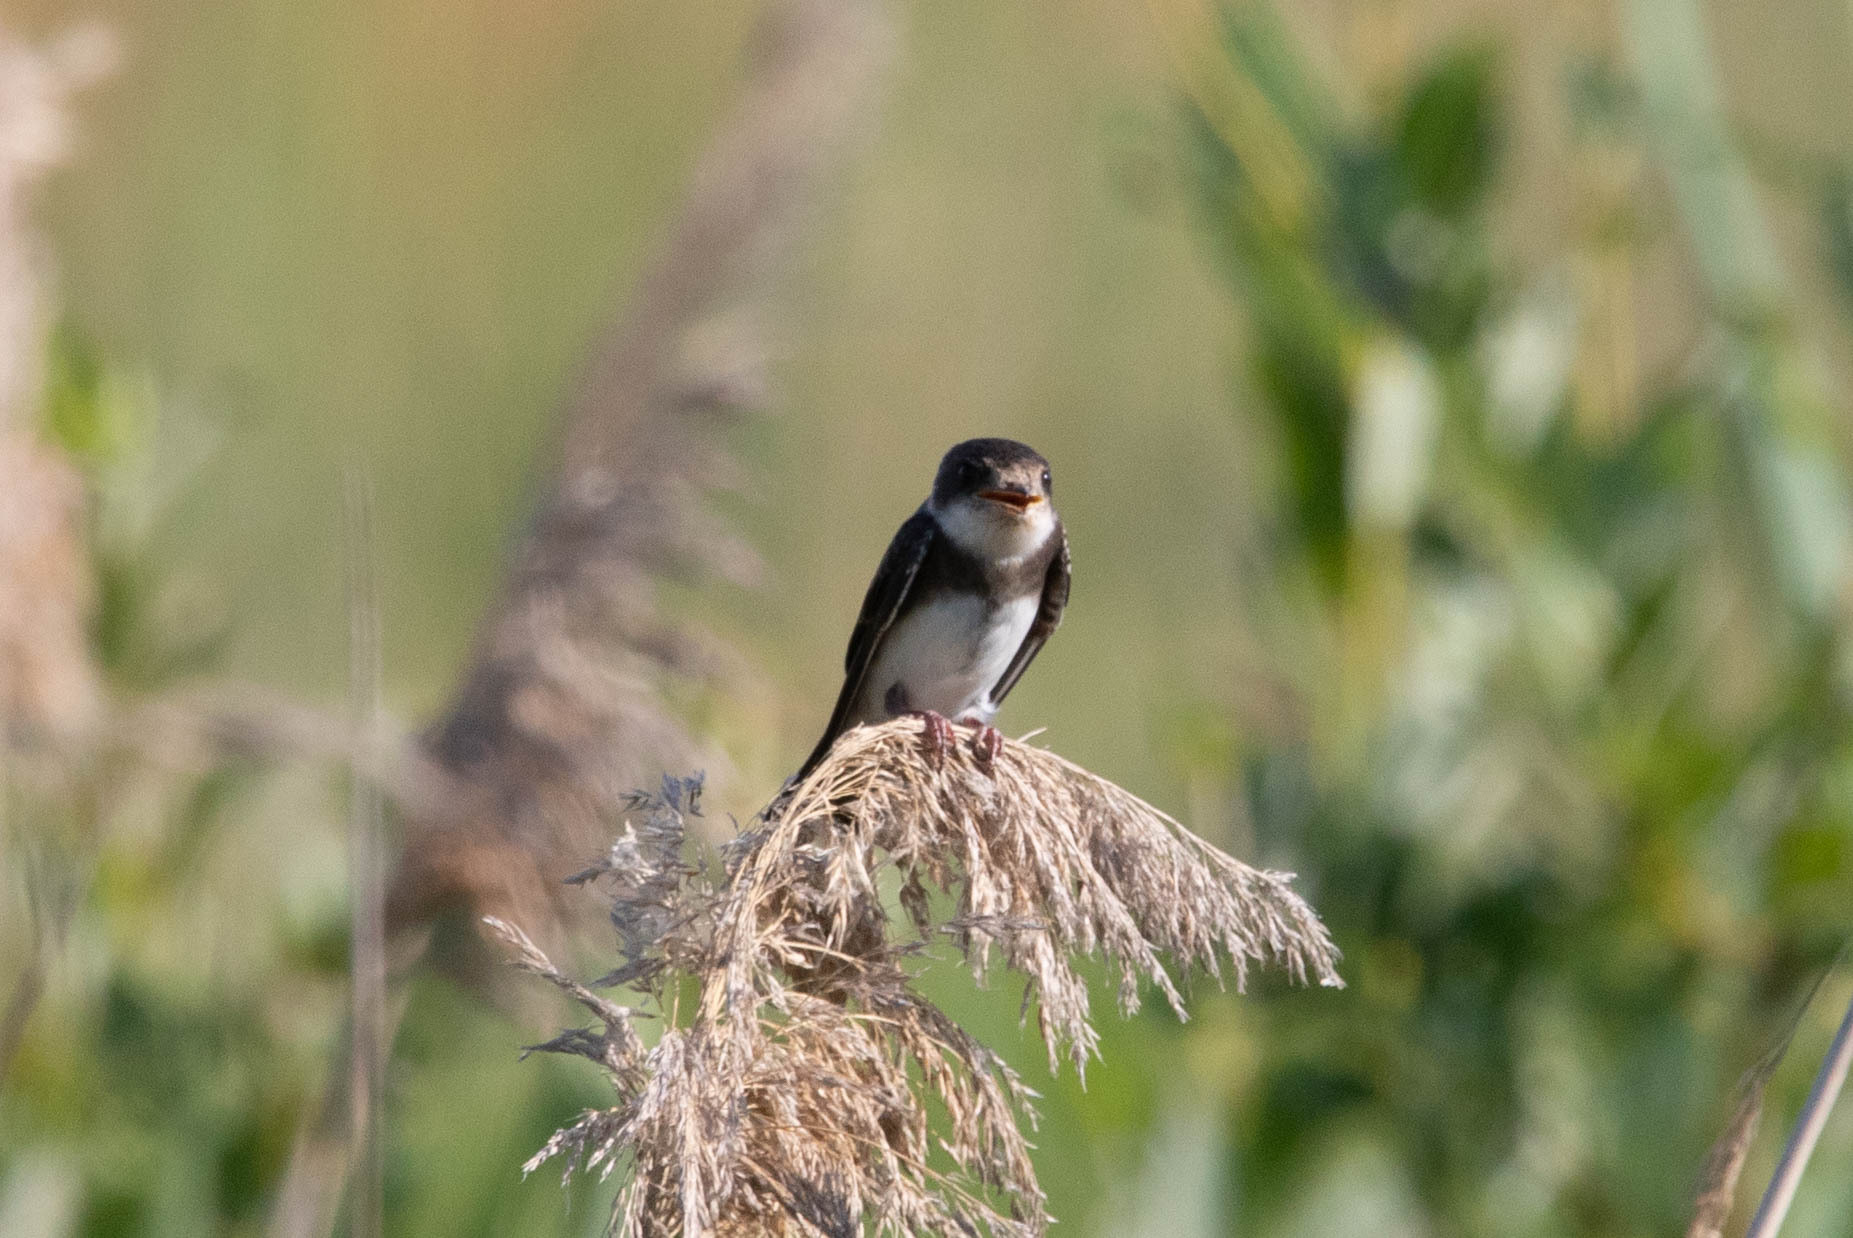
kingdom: Animalia
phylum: Chordata
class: Aves
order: Passeriformes
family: Hirundinidae
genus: Riparia
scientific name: Riparia riparia
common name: Sand martin
